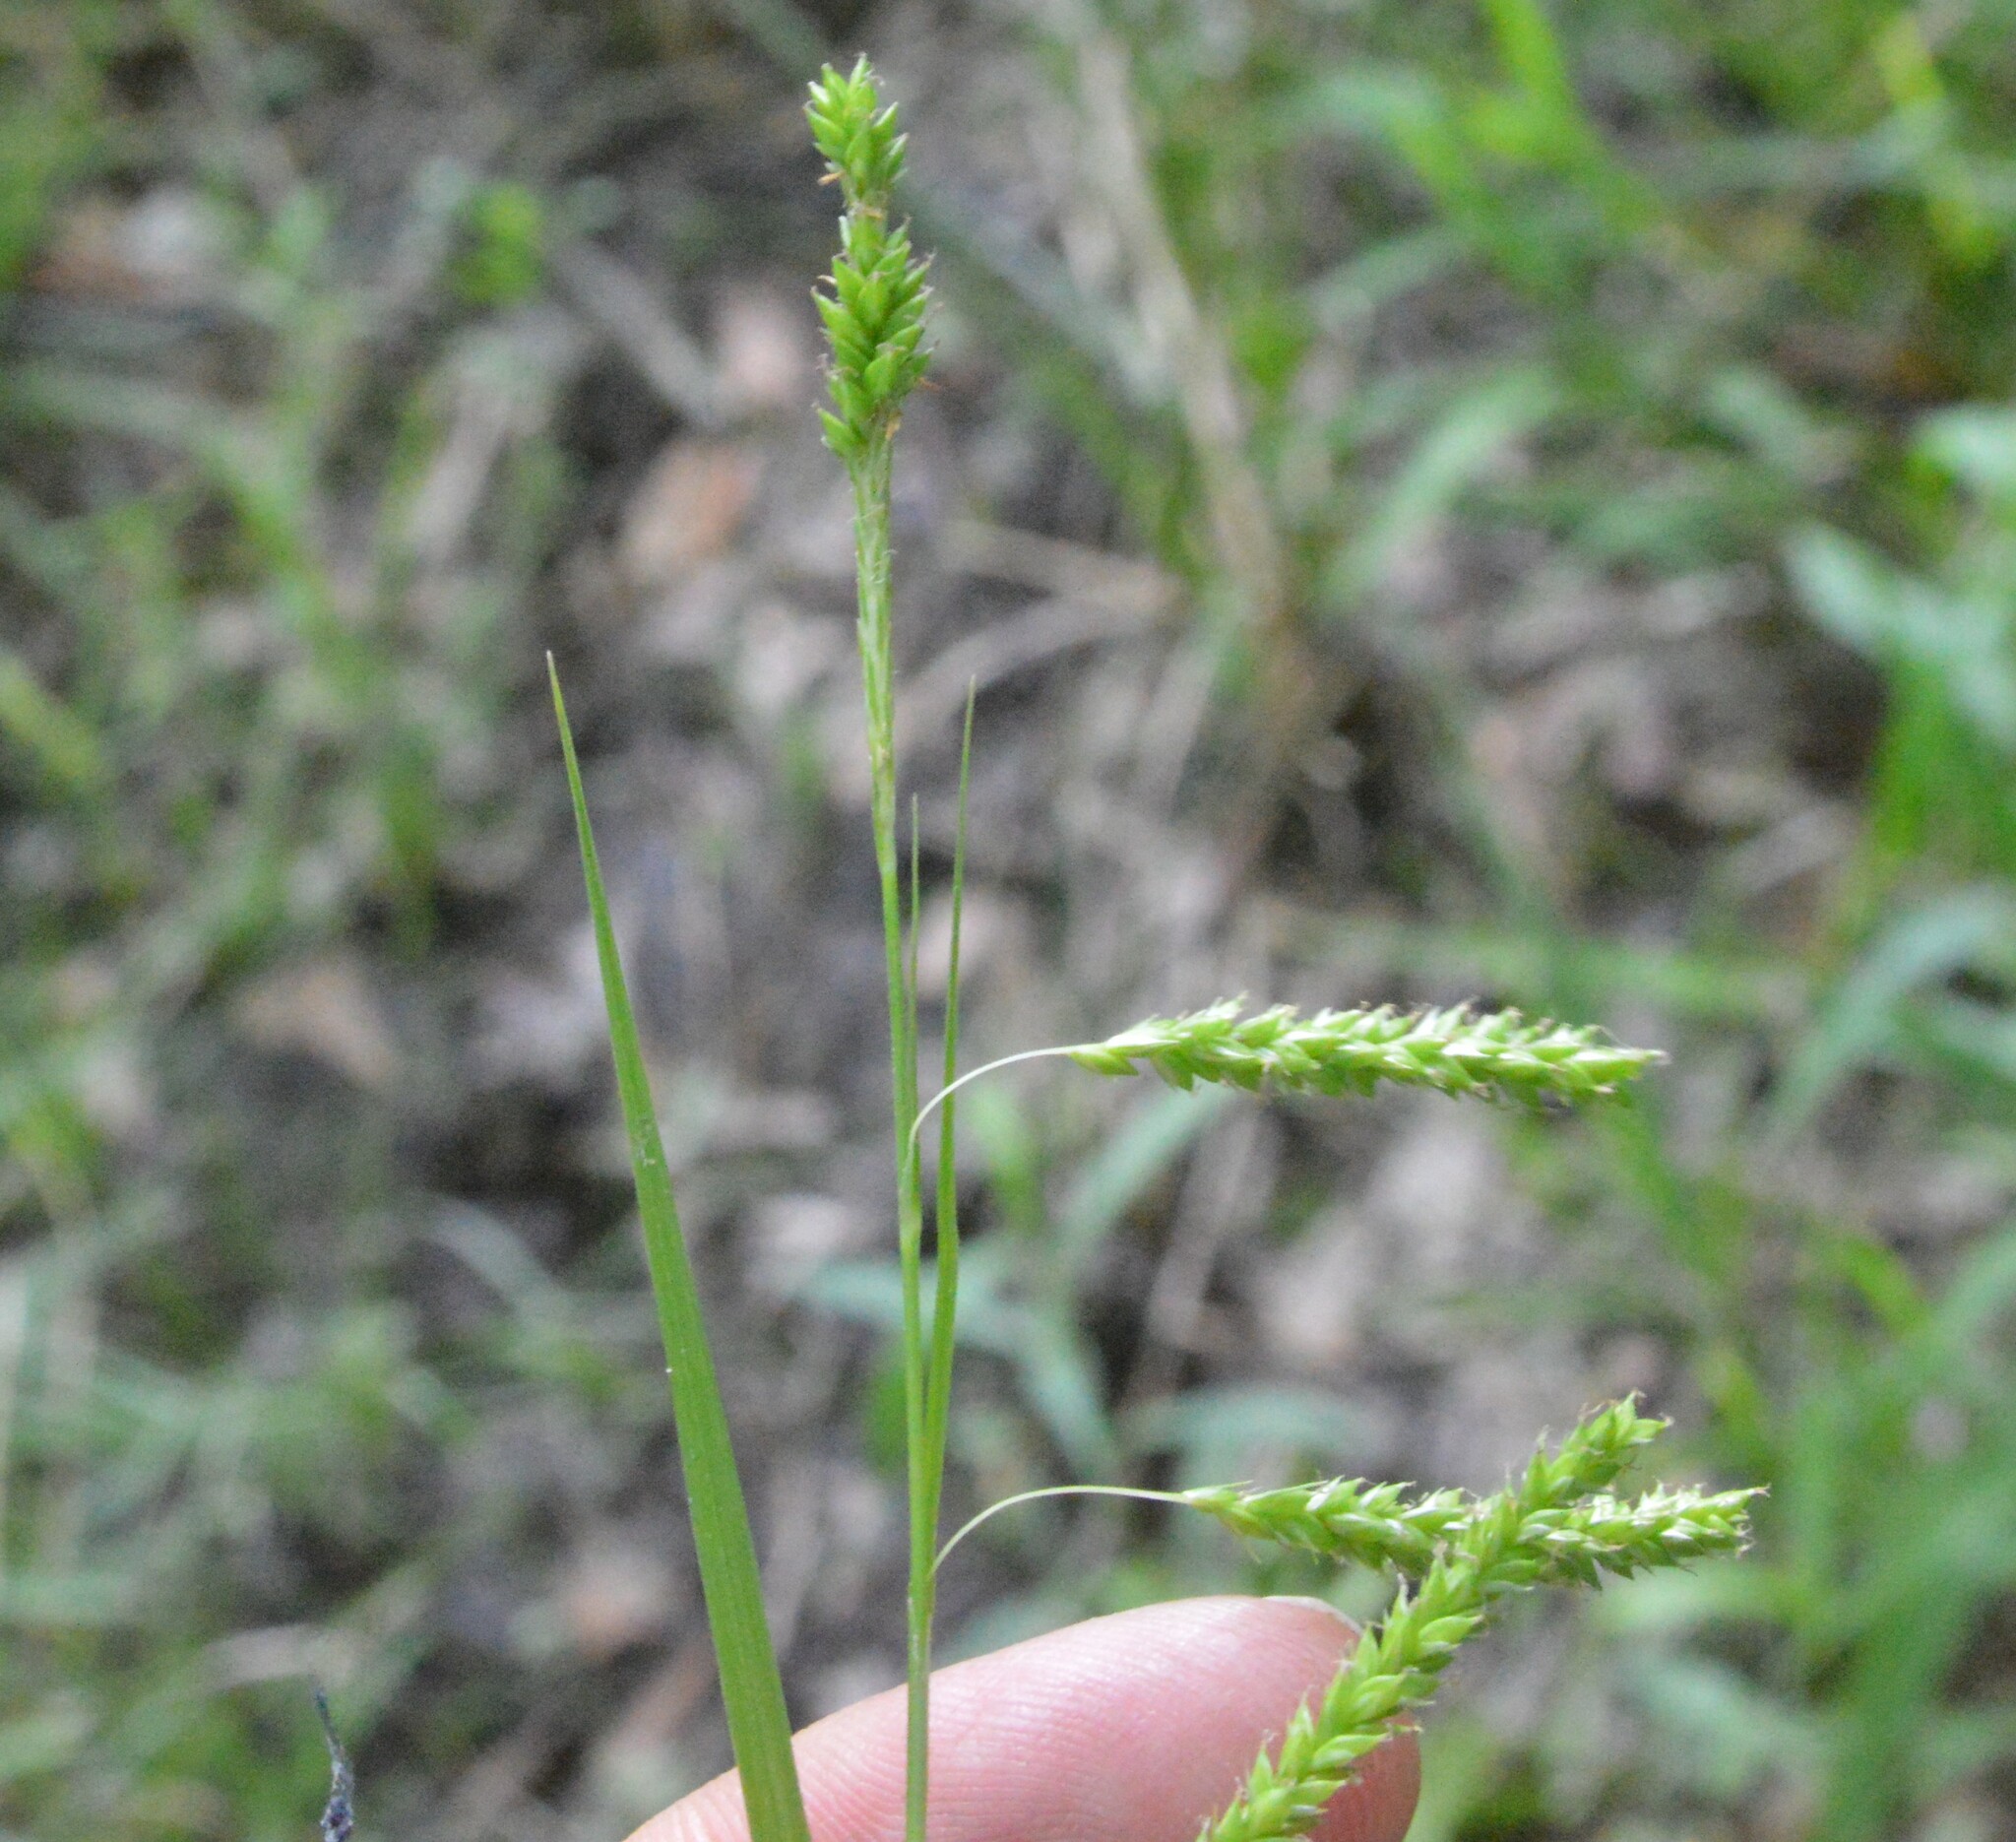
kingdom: Plantae
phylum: Tracheophyta
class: Liliopsida
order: Poales
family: Cyperaceae
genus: Carex
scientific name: Carex oxylepis
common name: Sharpscale sedge
